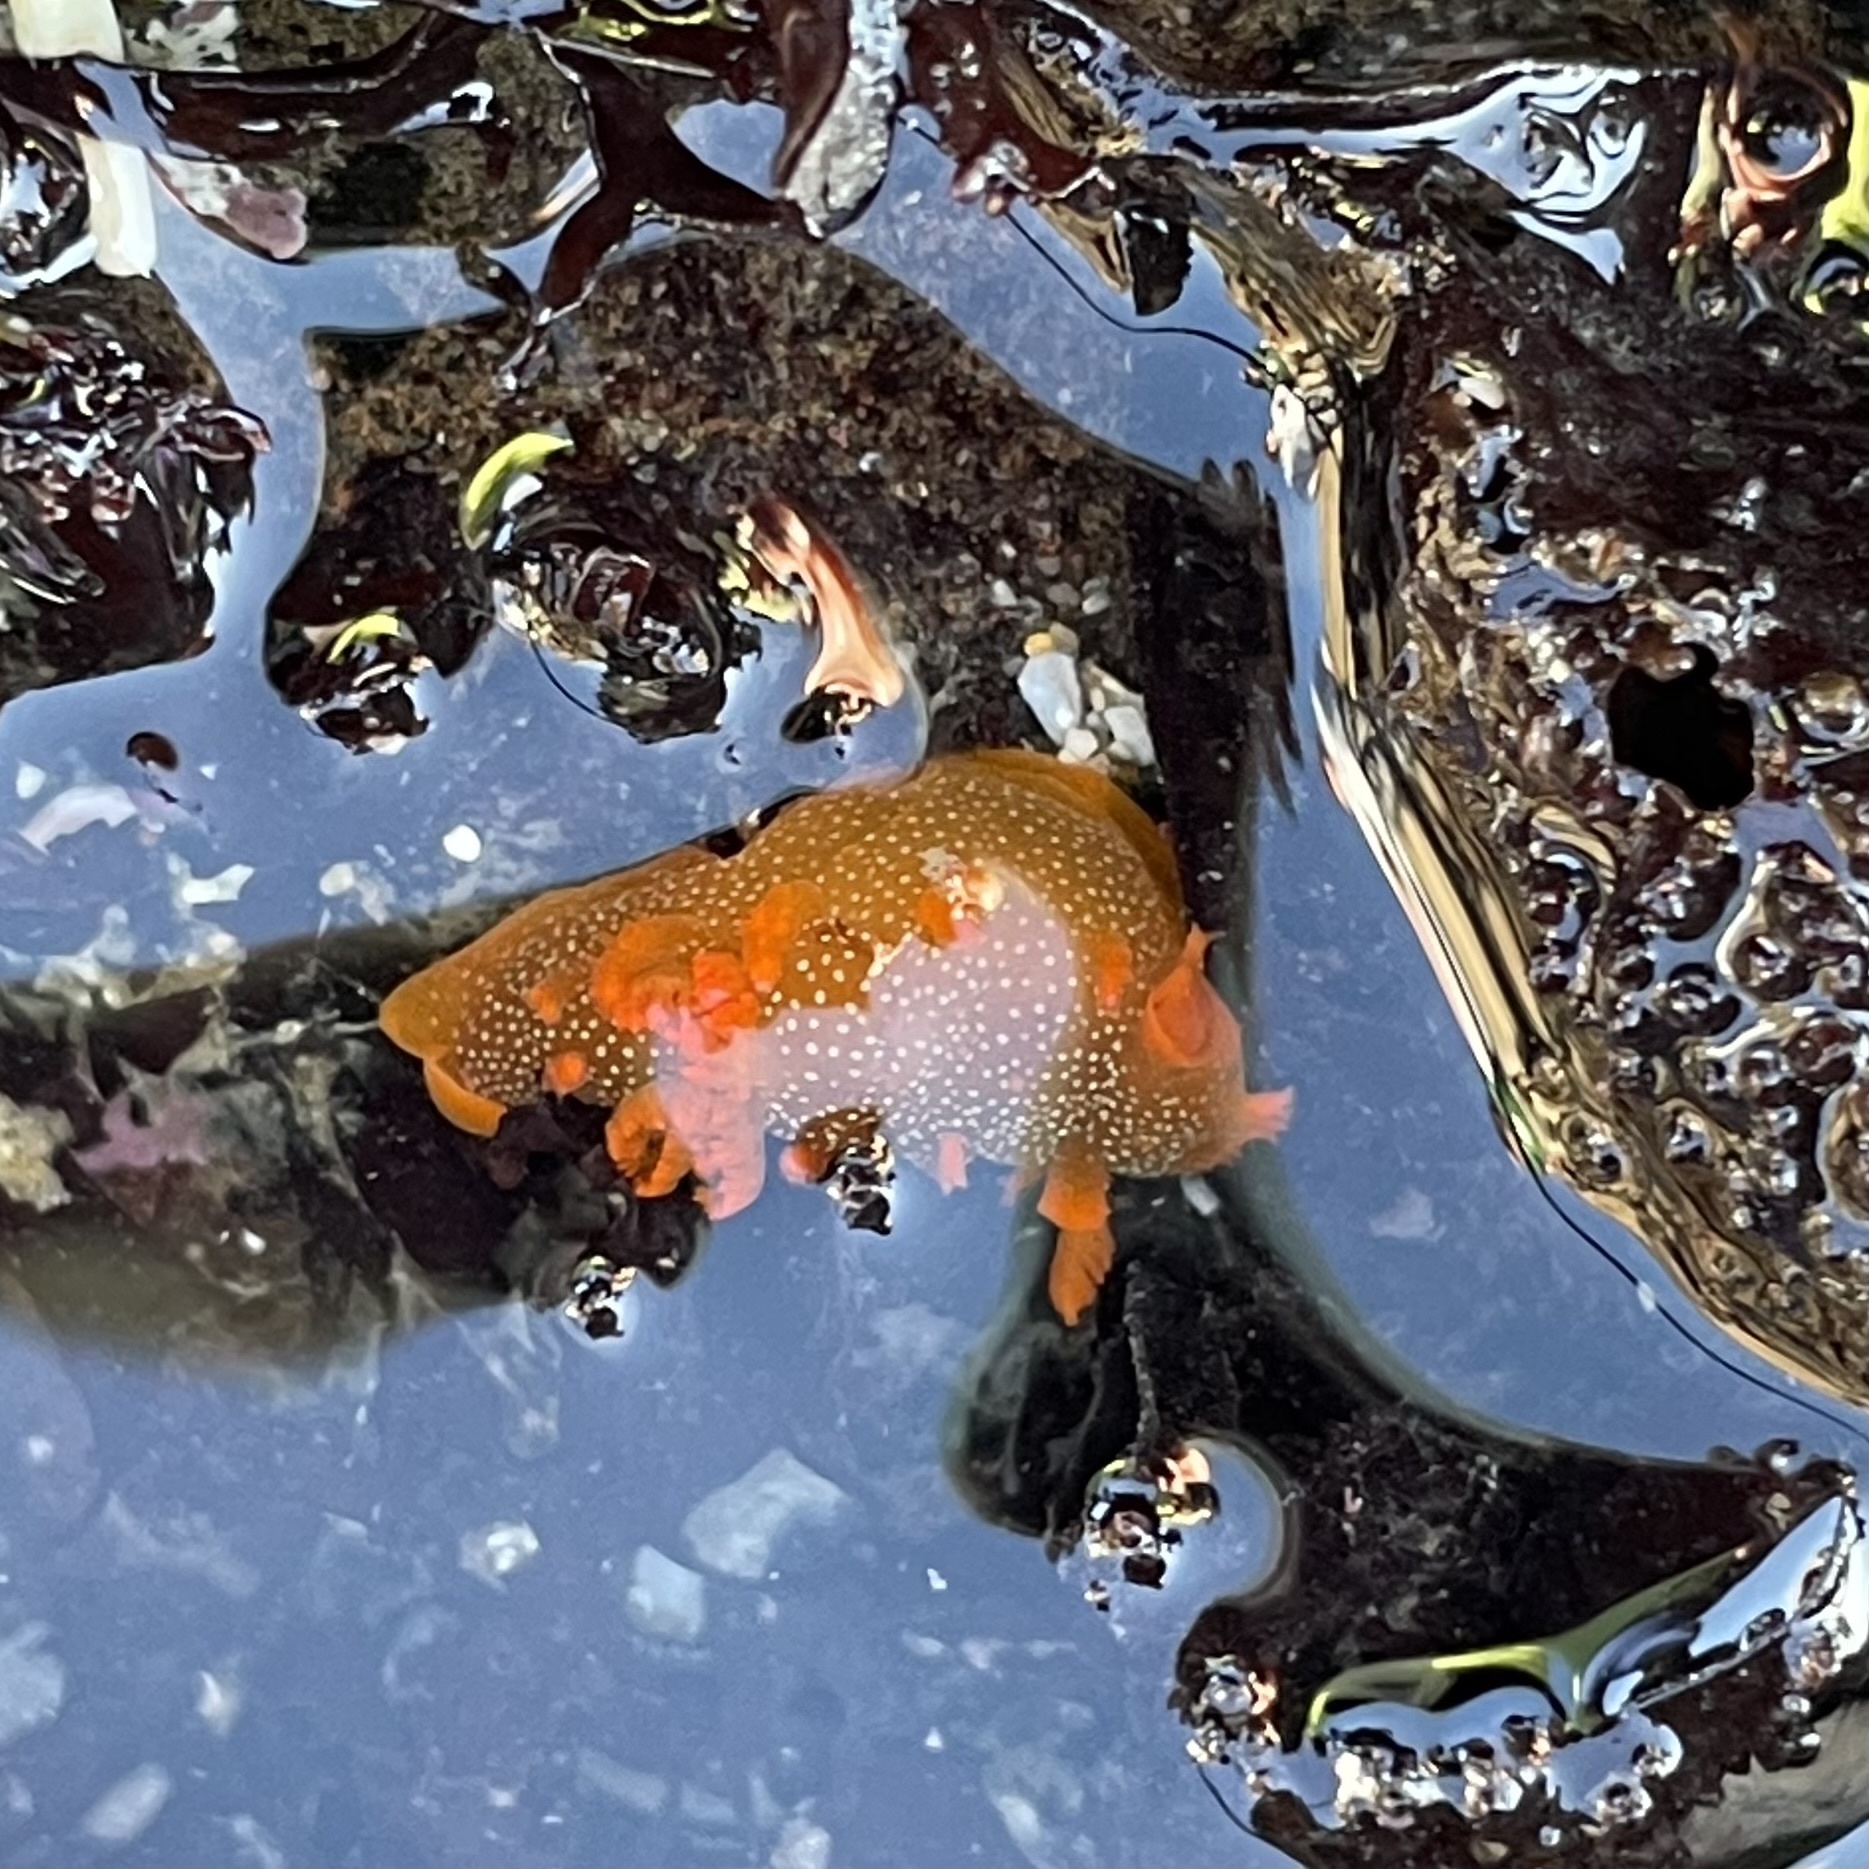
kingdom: Animalia
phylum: Mollusca
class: Gastropoda
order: Nudibranchia
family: Polyceridae
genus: Triopha
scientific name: Triopha maculata
